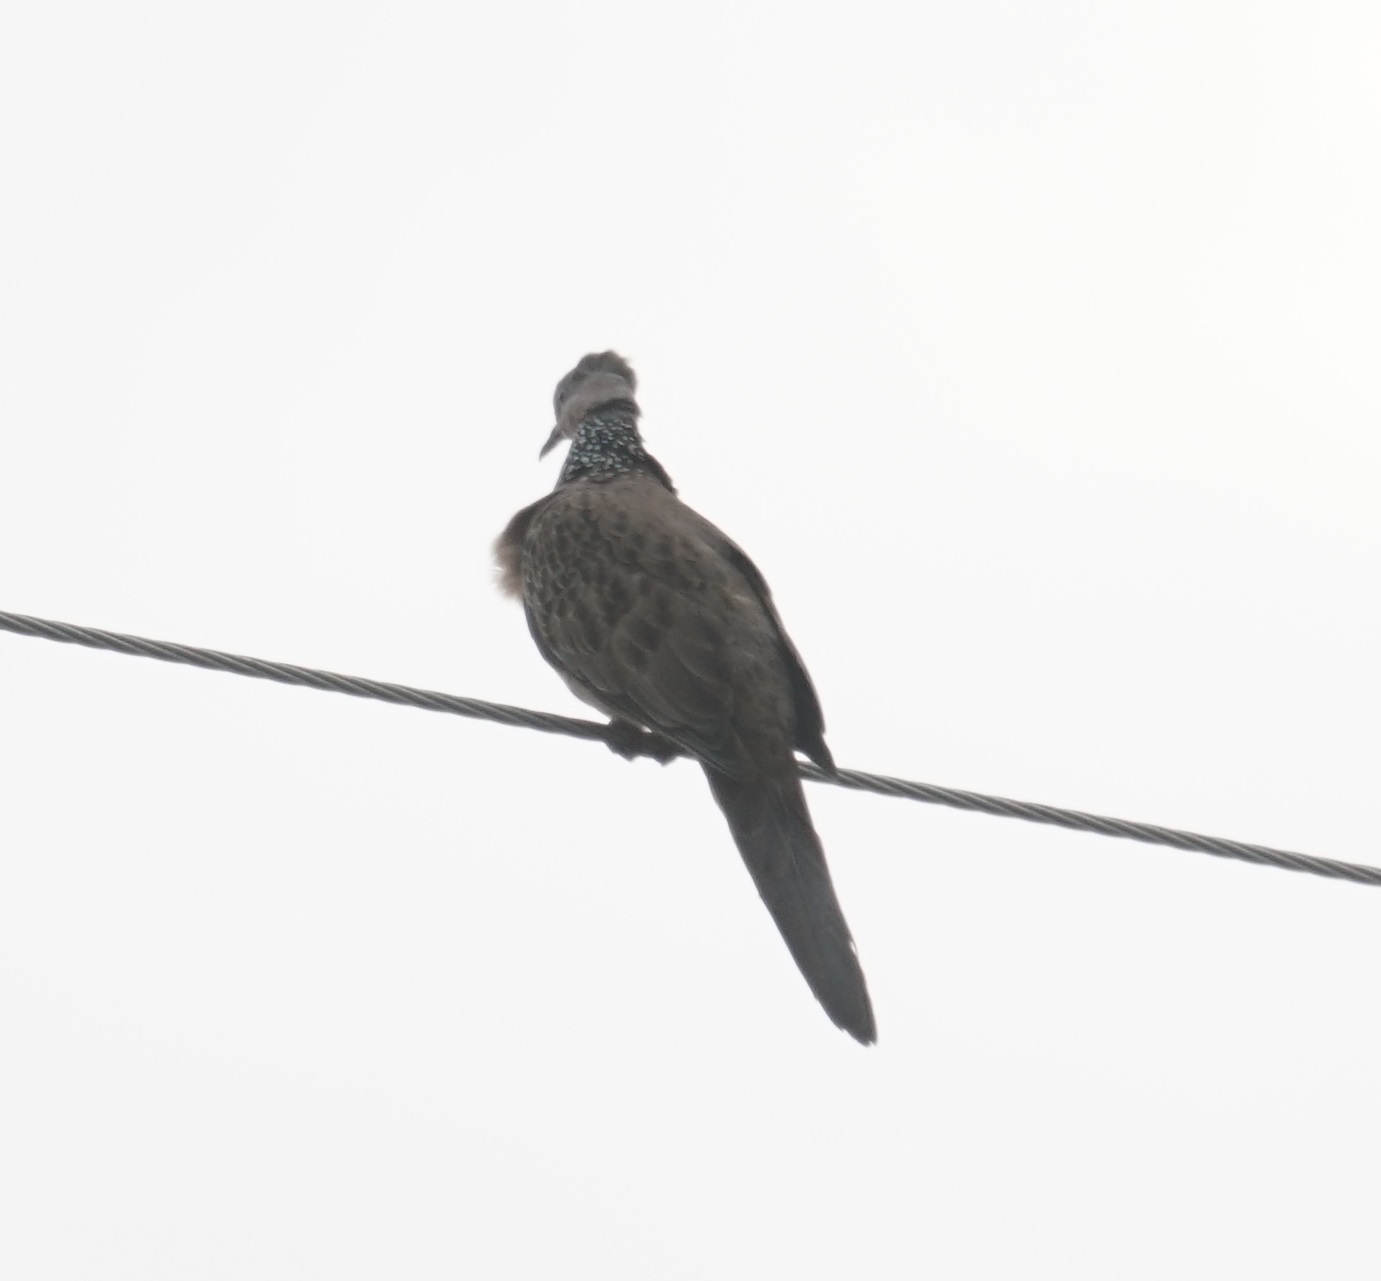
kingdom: Animalia
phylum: Chordata
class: Aves
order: Columbiformes
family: Columbidae
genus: Spilopelia
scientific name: Spilopelia chinensis
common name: Spotted dove
